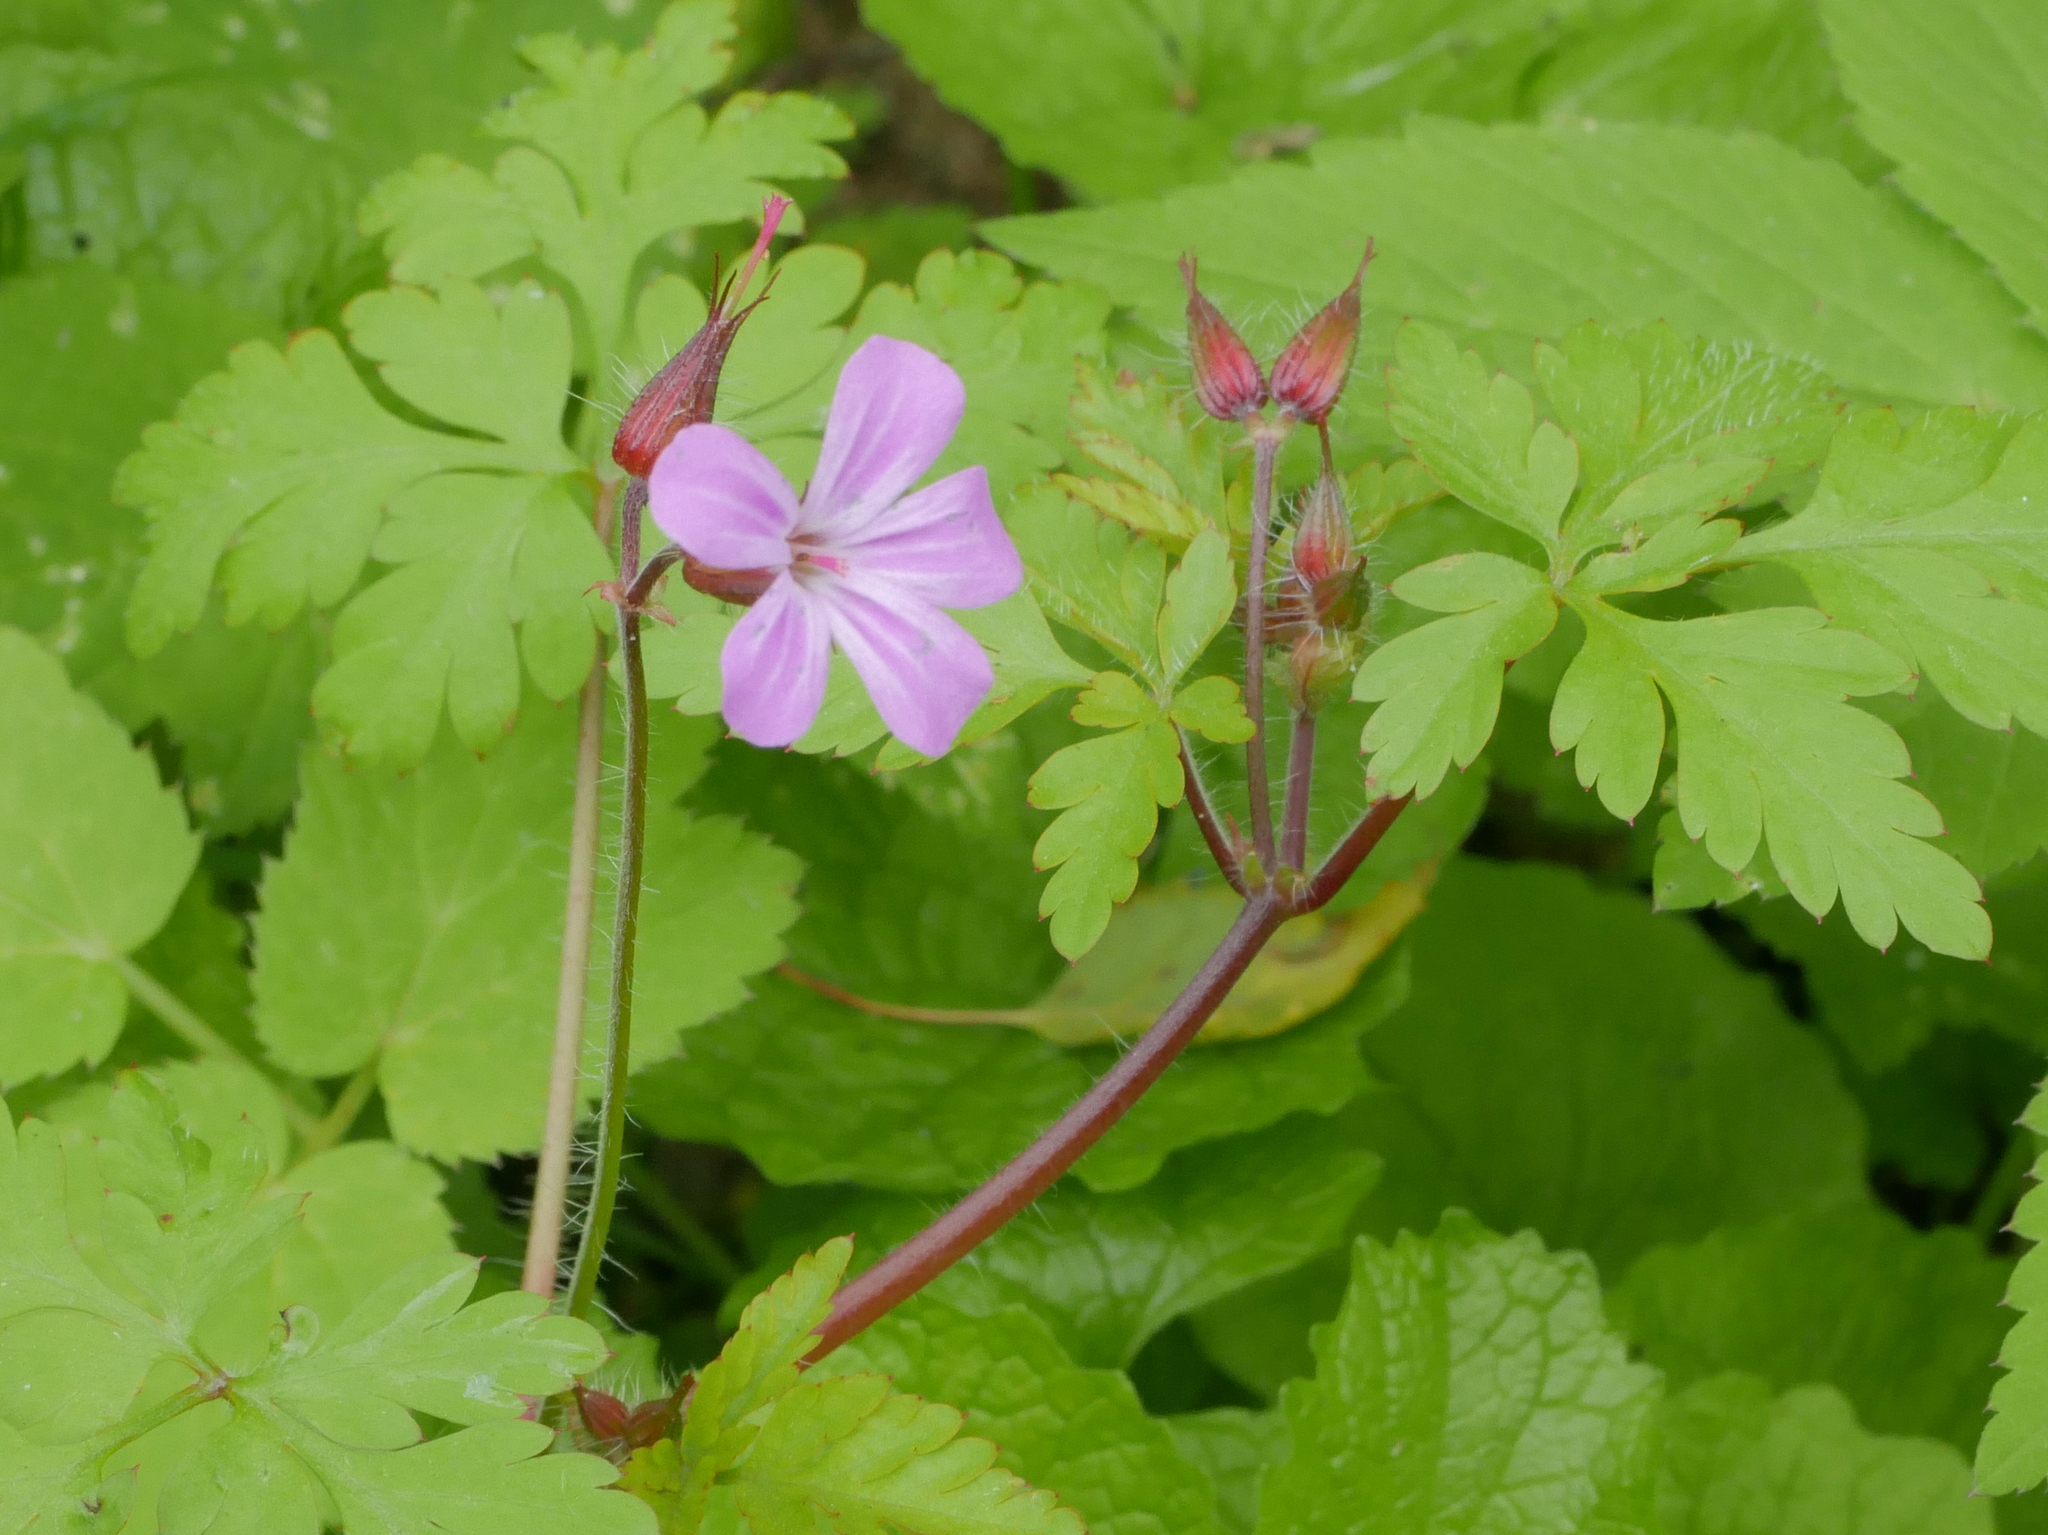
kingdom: Plantae
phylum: Tracheophyta
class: Magnoliopsida
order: Geraniales
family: Geraniaceae
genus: Geranium
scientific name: Geranium robertianum
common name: Herb-robert
